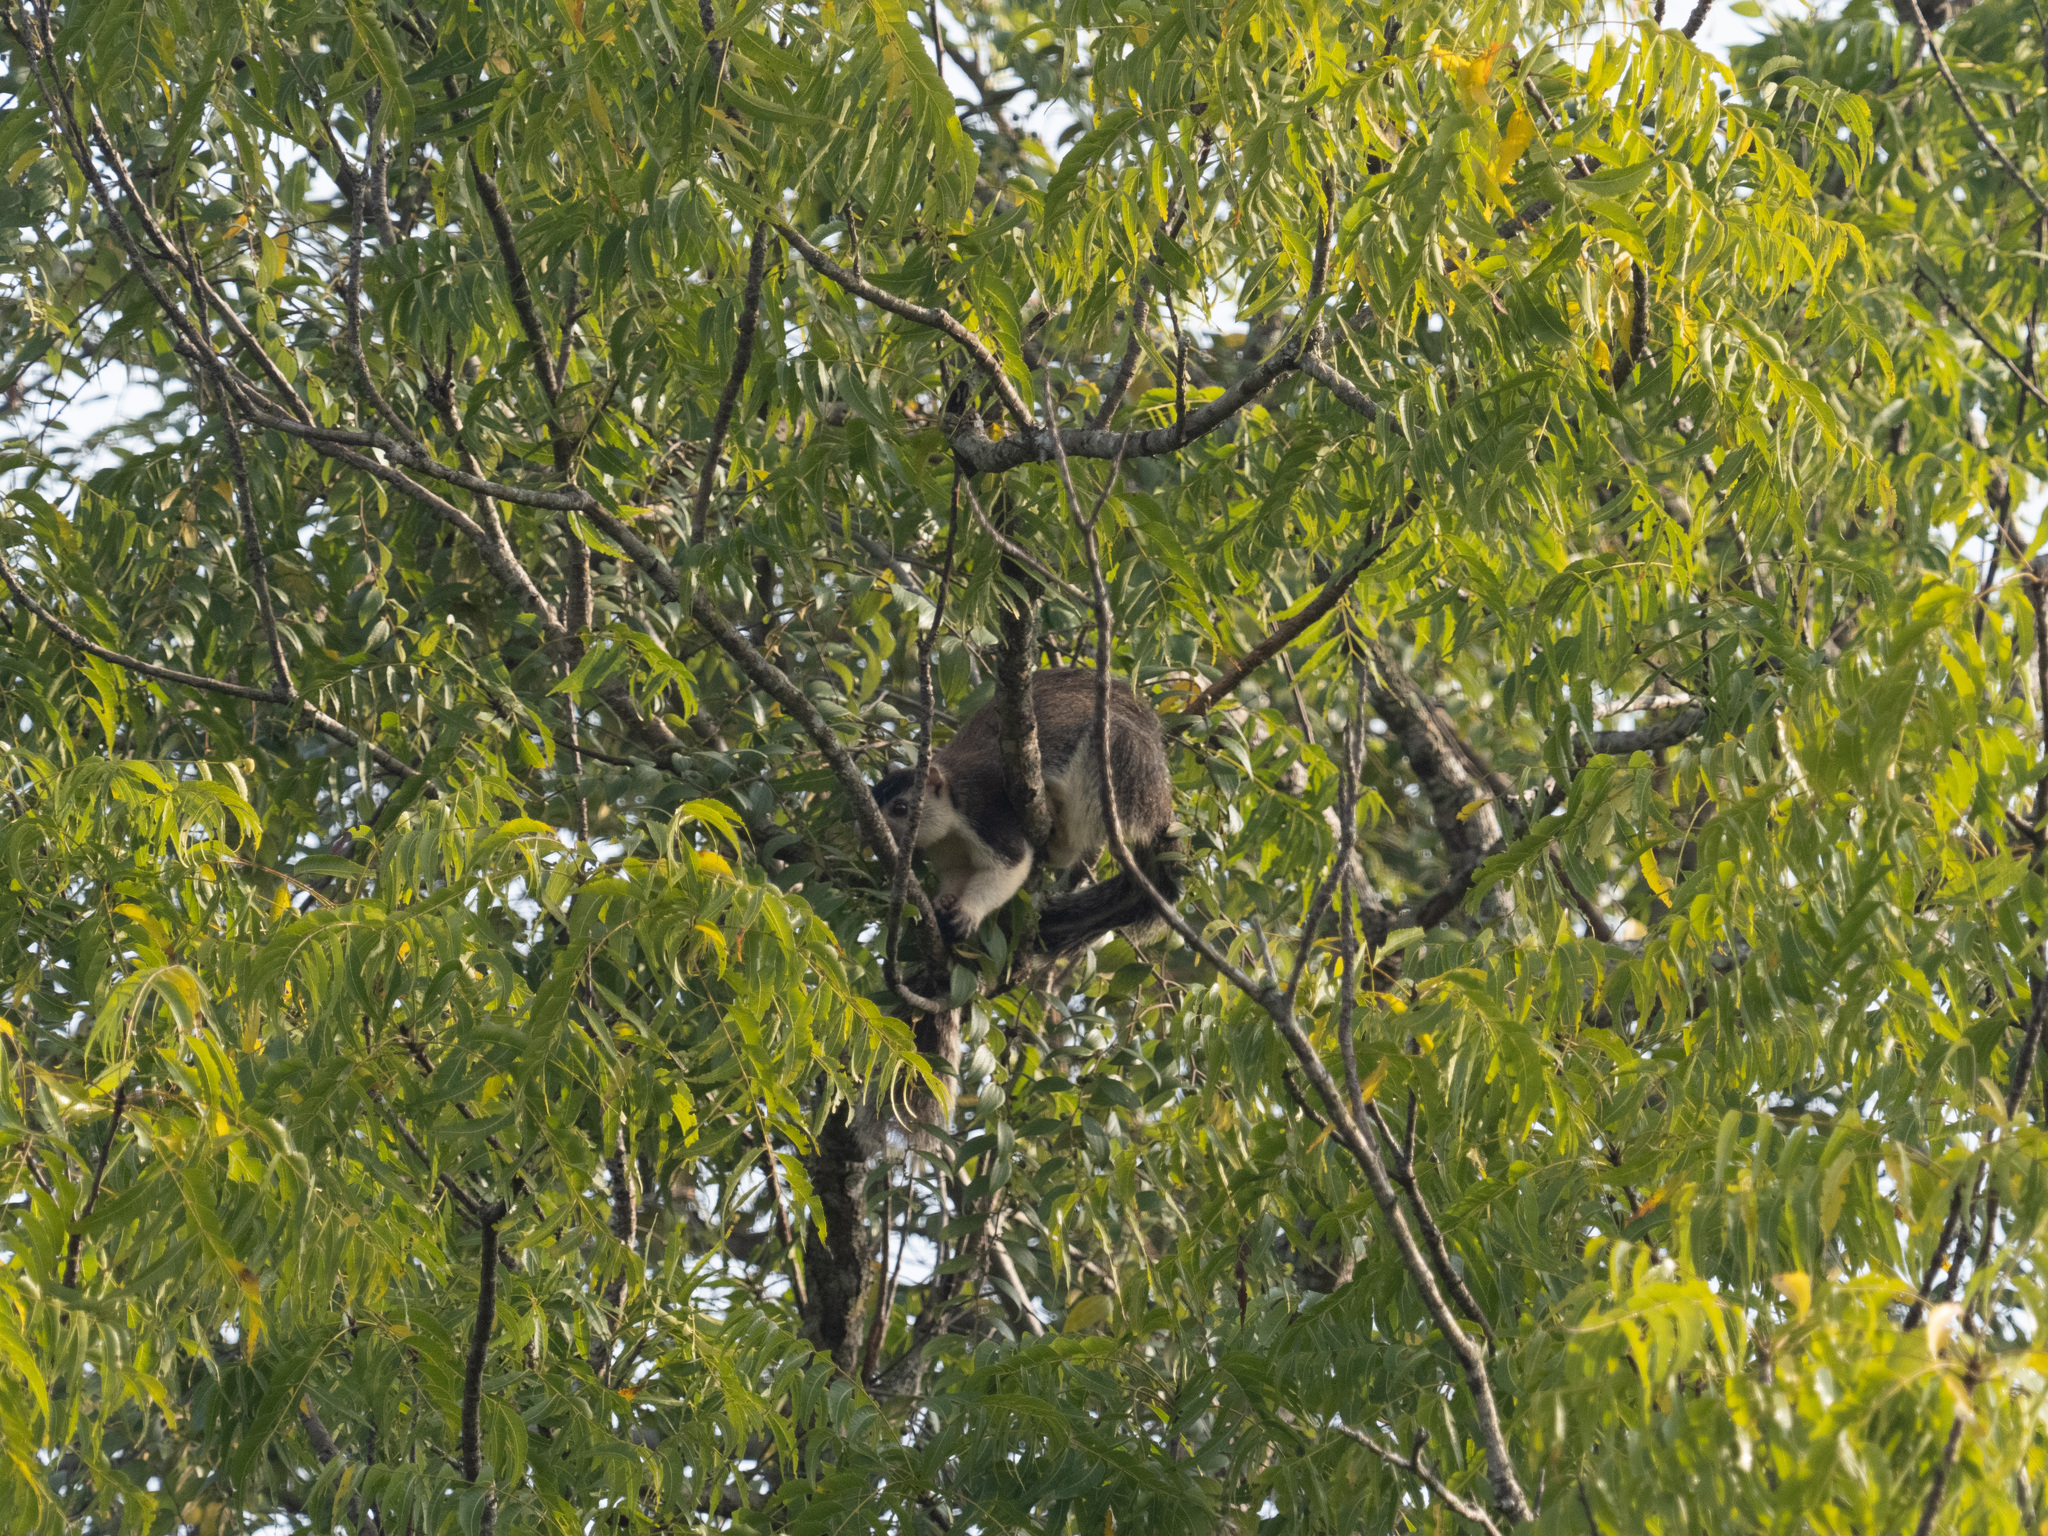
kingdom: Animalia
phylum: Chordata
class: Mammalia
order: Rodentia
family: Sciuridae
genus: Ratufa
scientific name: Ratufa macroura
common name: Sri lankan giant squirrel
